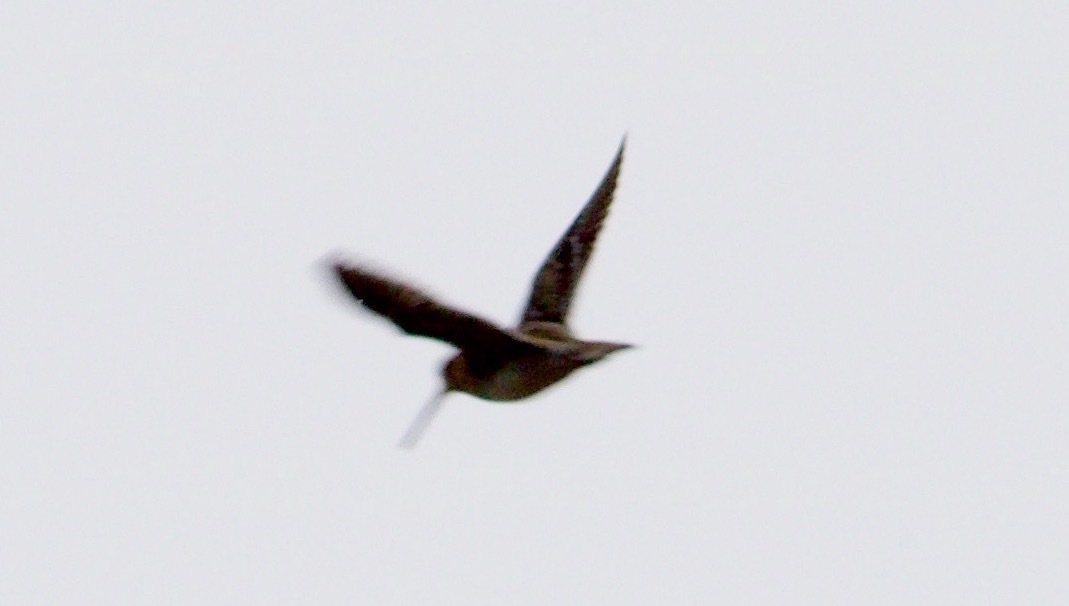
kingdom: Animalia
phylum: Chordata
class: Aves
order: Charadriiformes
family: Scolopacidae
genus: Gallinago
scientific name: Gallinago gallinago
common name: Common snipe
